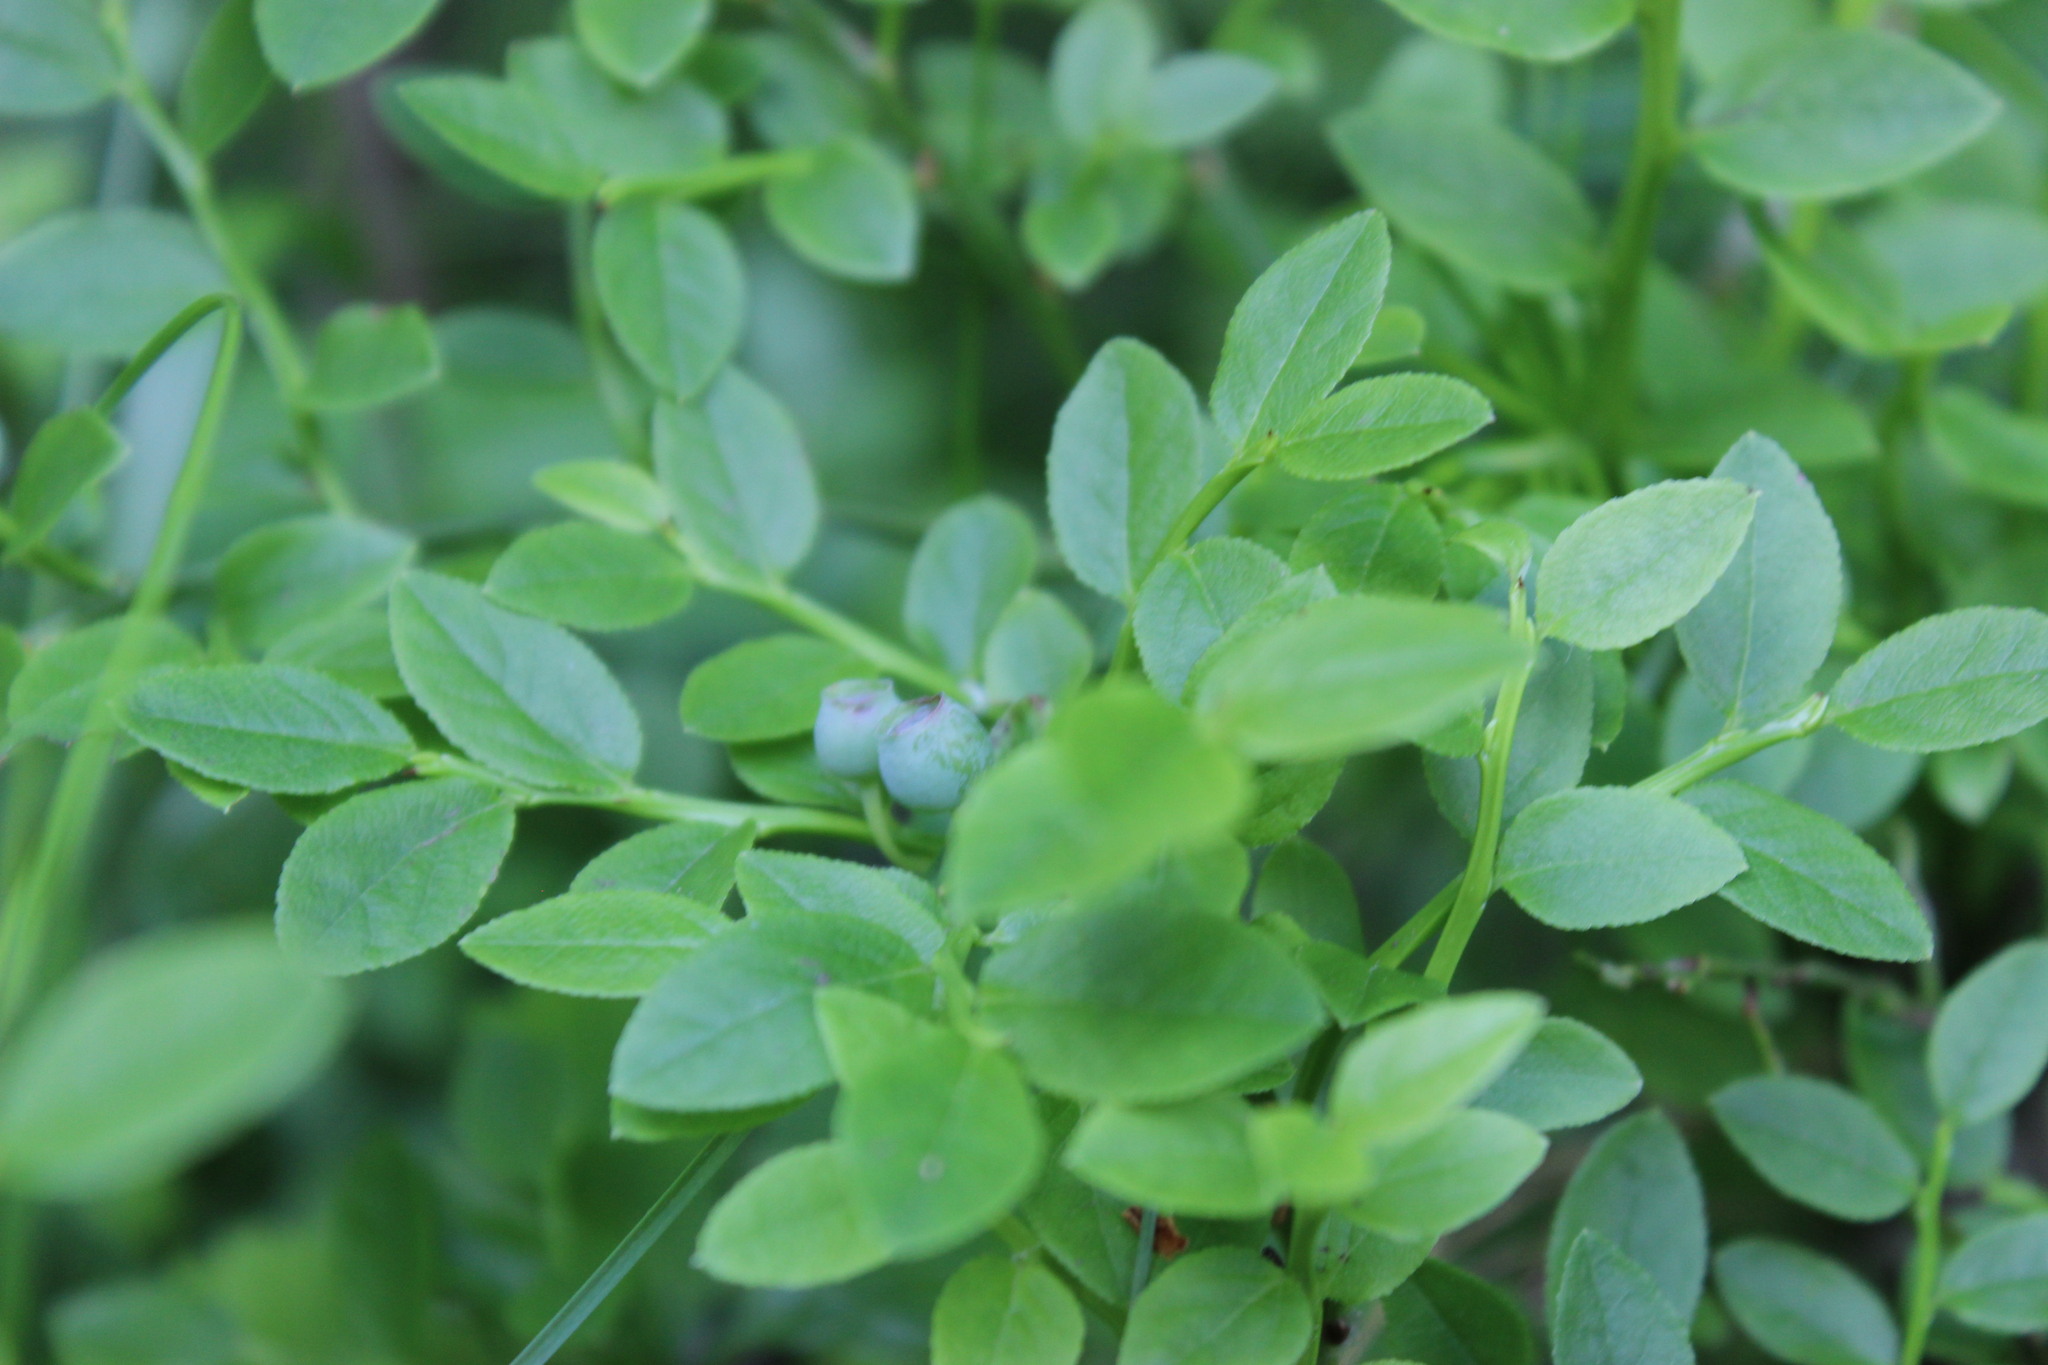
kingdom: Plantae
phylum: Tracheophyta
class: Magnoliopsida
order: Ericales
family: Ericaceae
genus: Vaccinium
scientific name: Vaccinium myrtillus
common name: Bilberry
